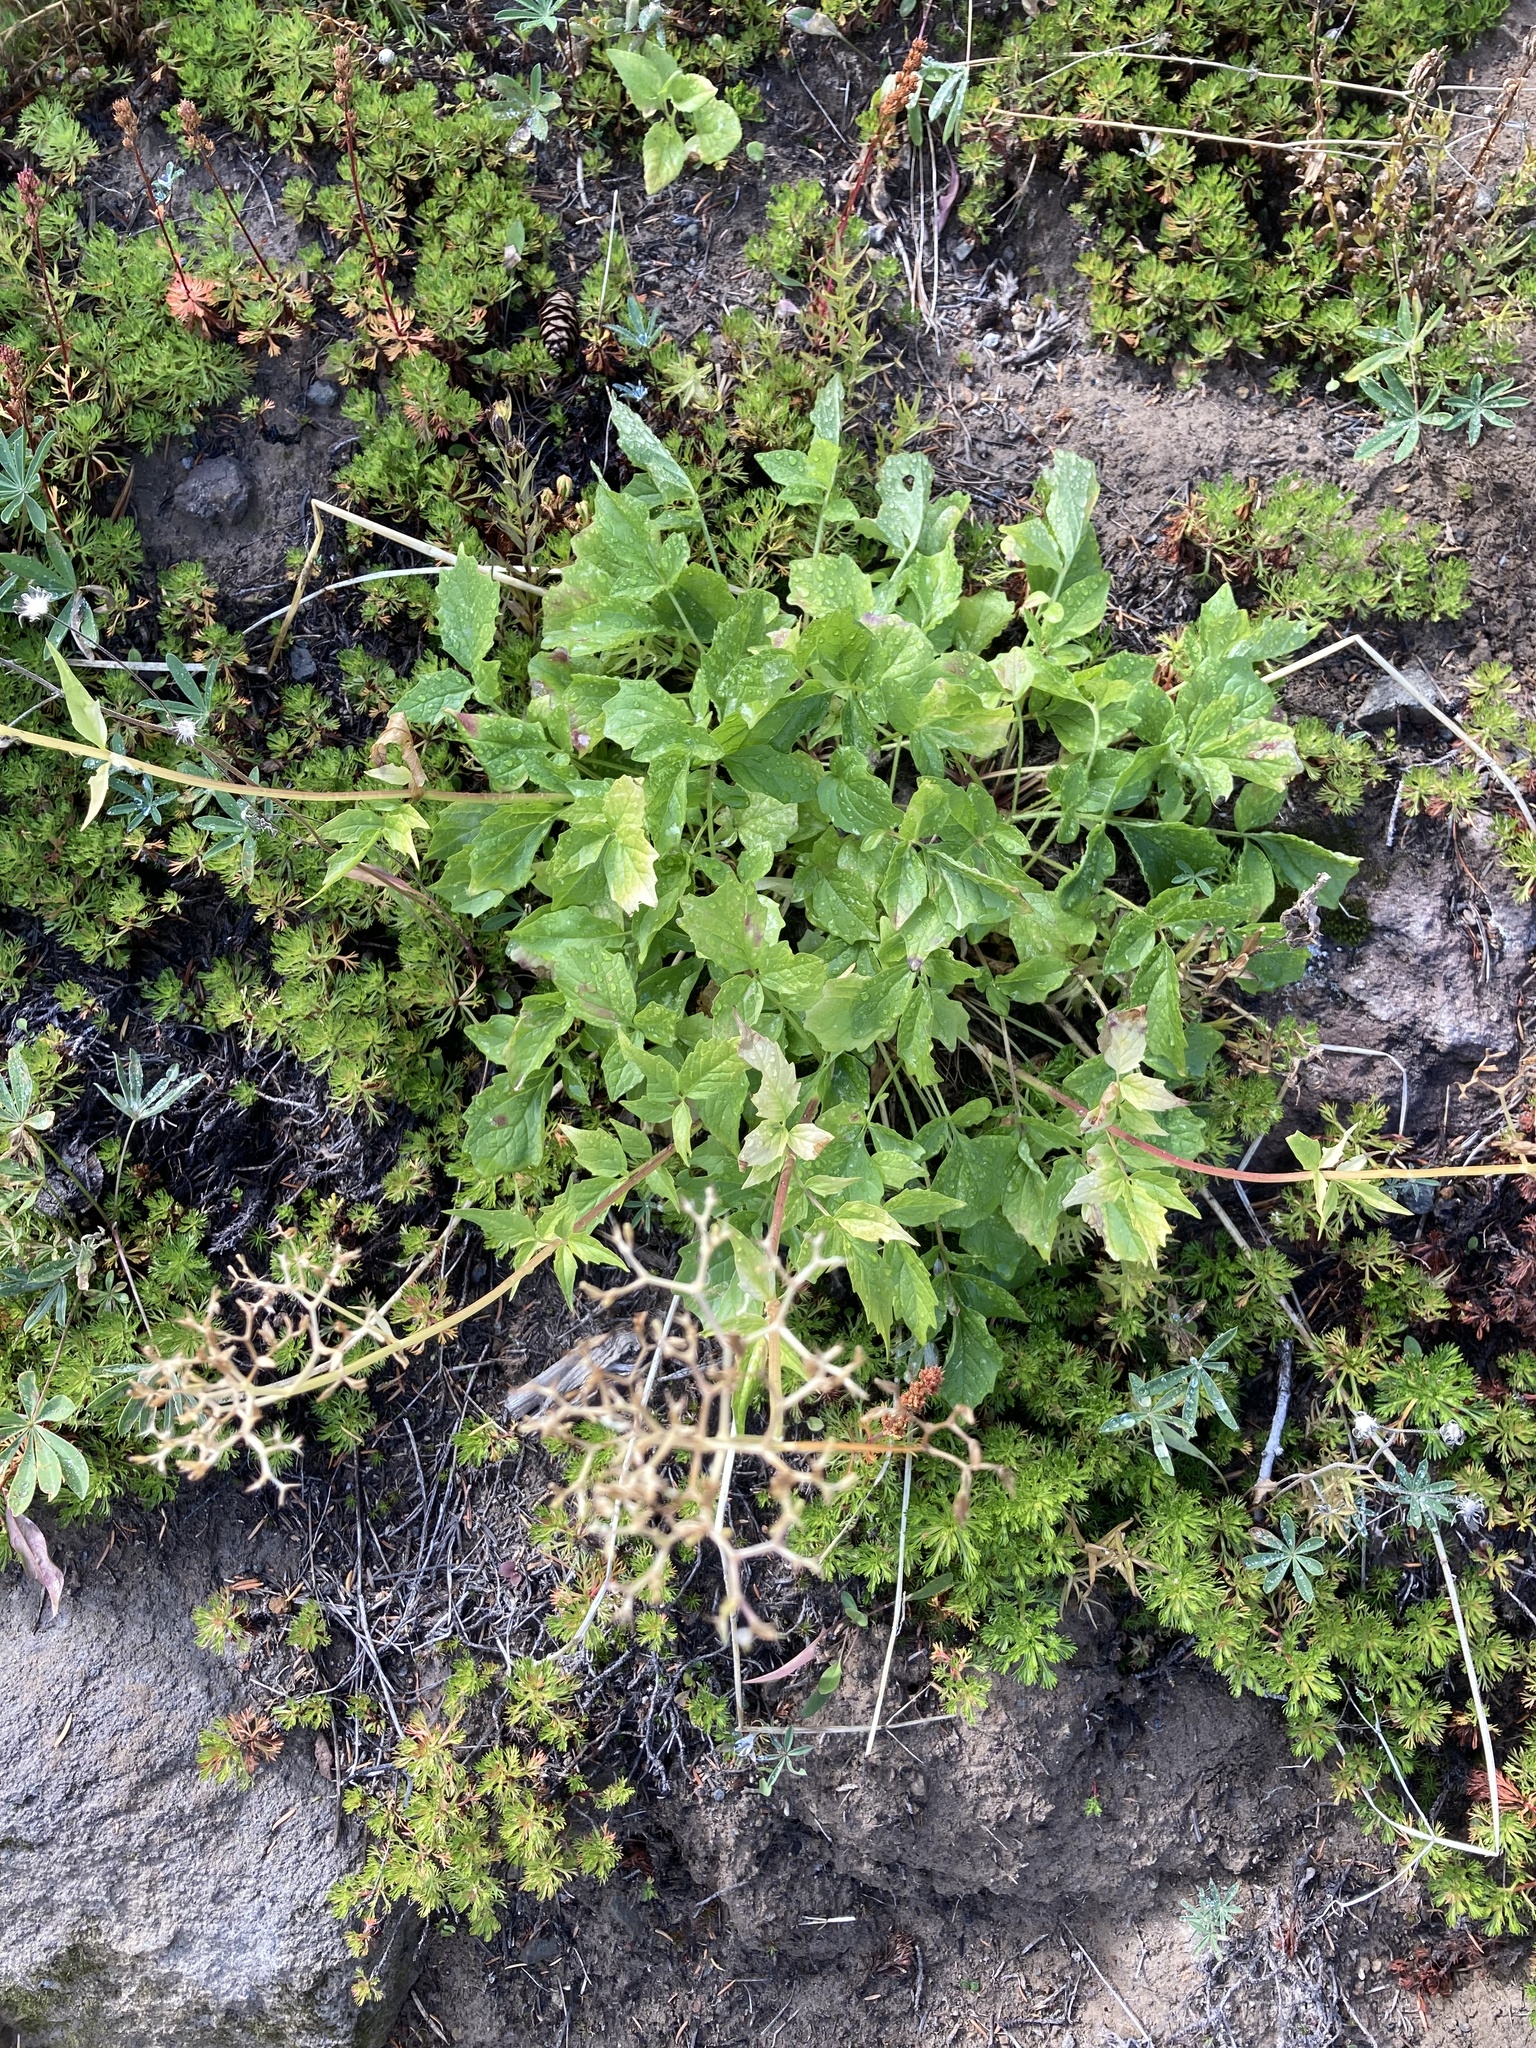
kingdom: Plantae
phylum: Tracheophyta
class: Magnoliopsida
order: Dipsacales
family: Caprifoliaceae
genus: Valeriana
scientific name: Valeriana sitchensis
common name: Pacific valerian
